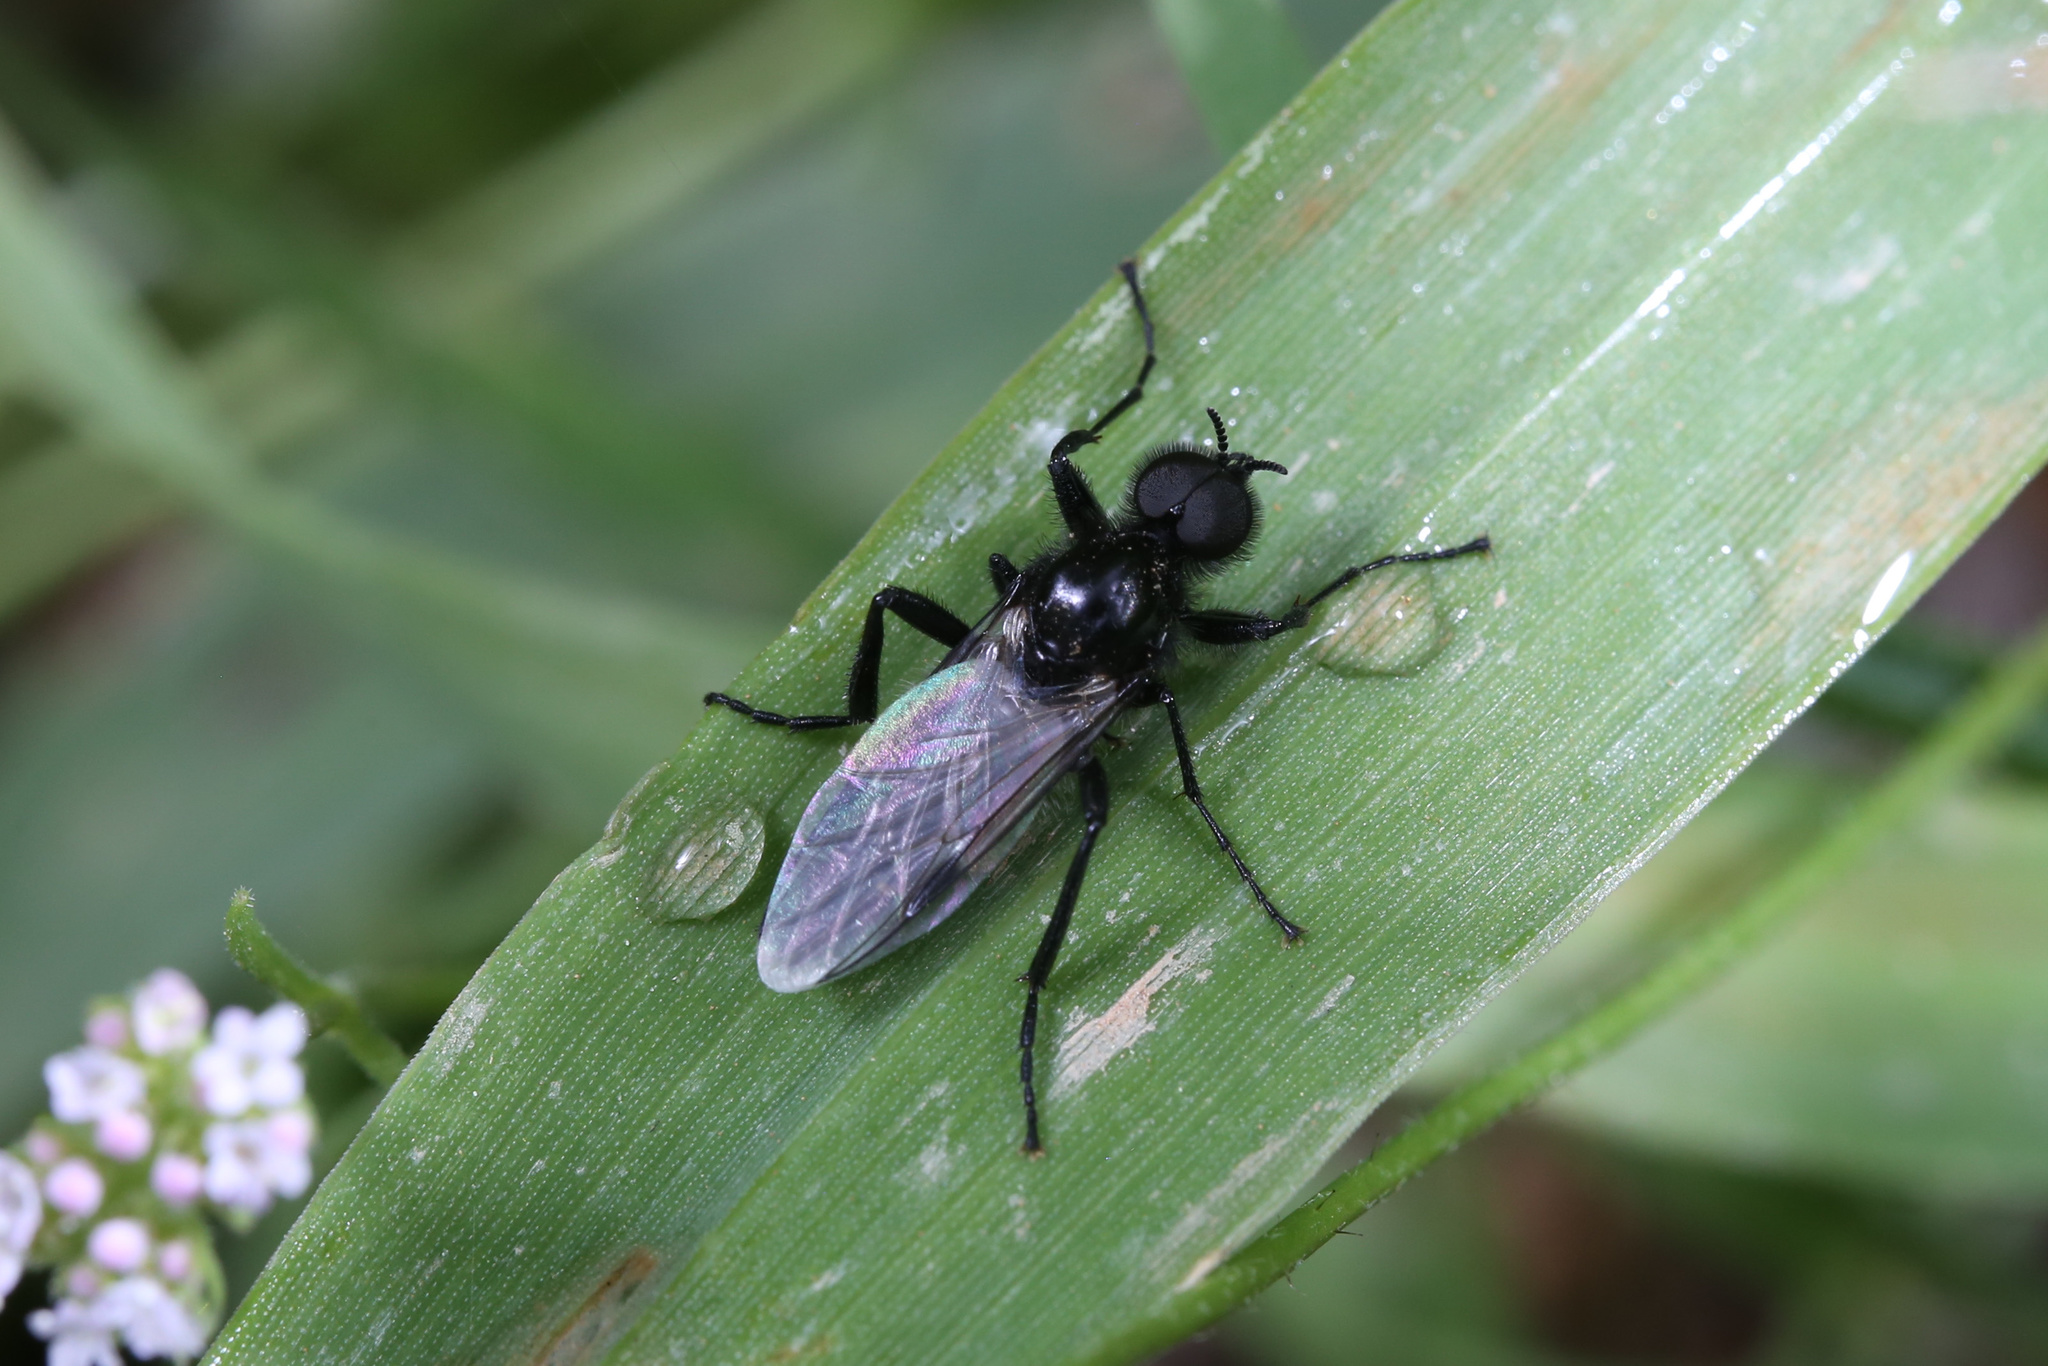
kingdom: Animalia
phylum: Arthropoda
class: Insecta
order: Diptera
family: Bibionidae
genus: Bibio
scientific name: Bibio
